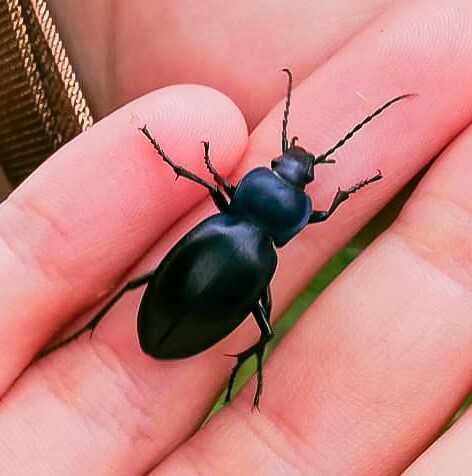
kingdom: Animalia
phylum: Arthropoda
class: Insecta
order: Coleoptera
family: Carabidae
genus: Carabus
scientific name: Carabus glabratus
